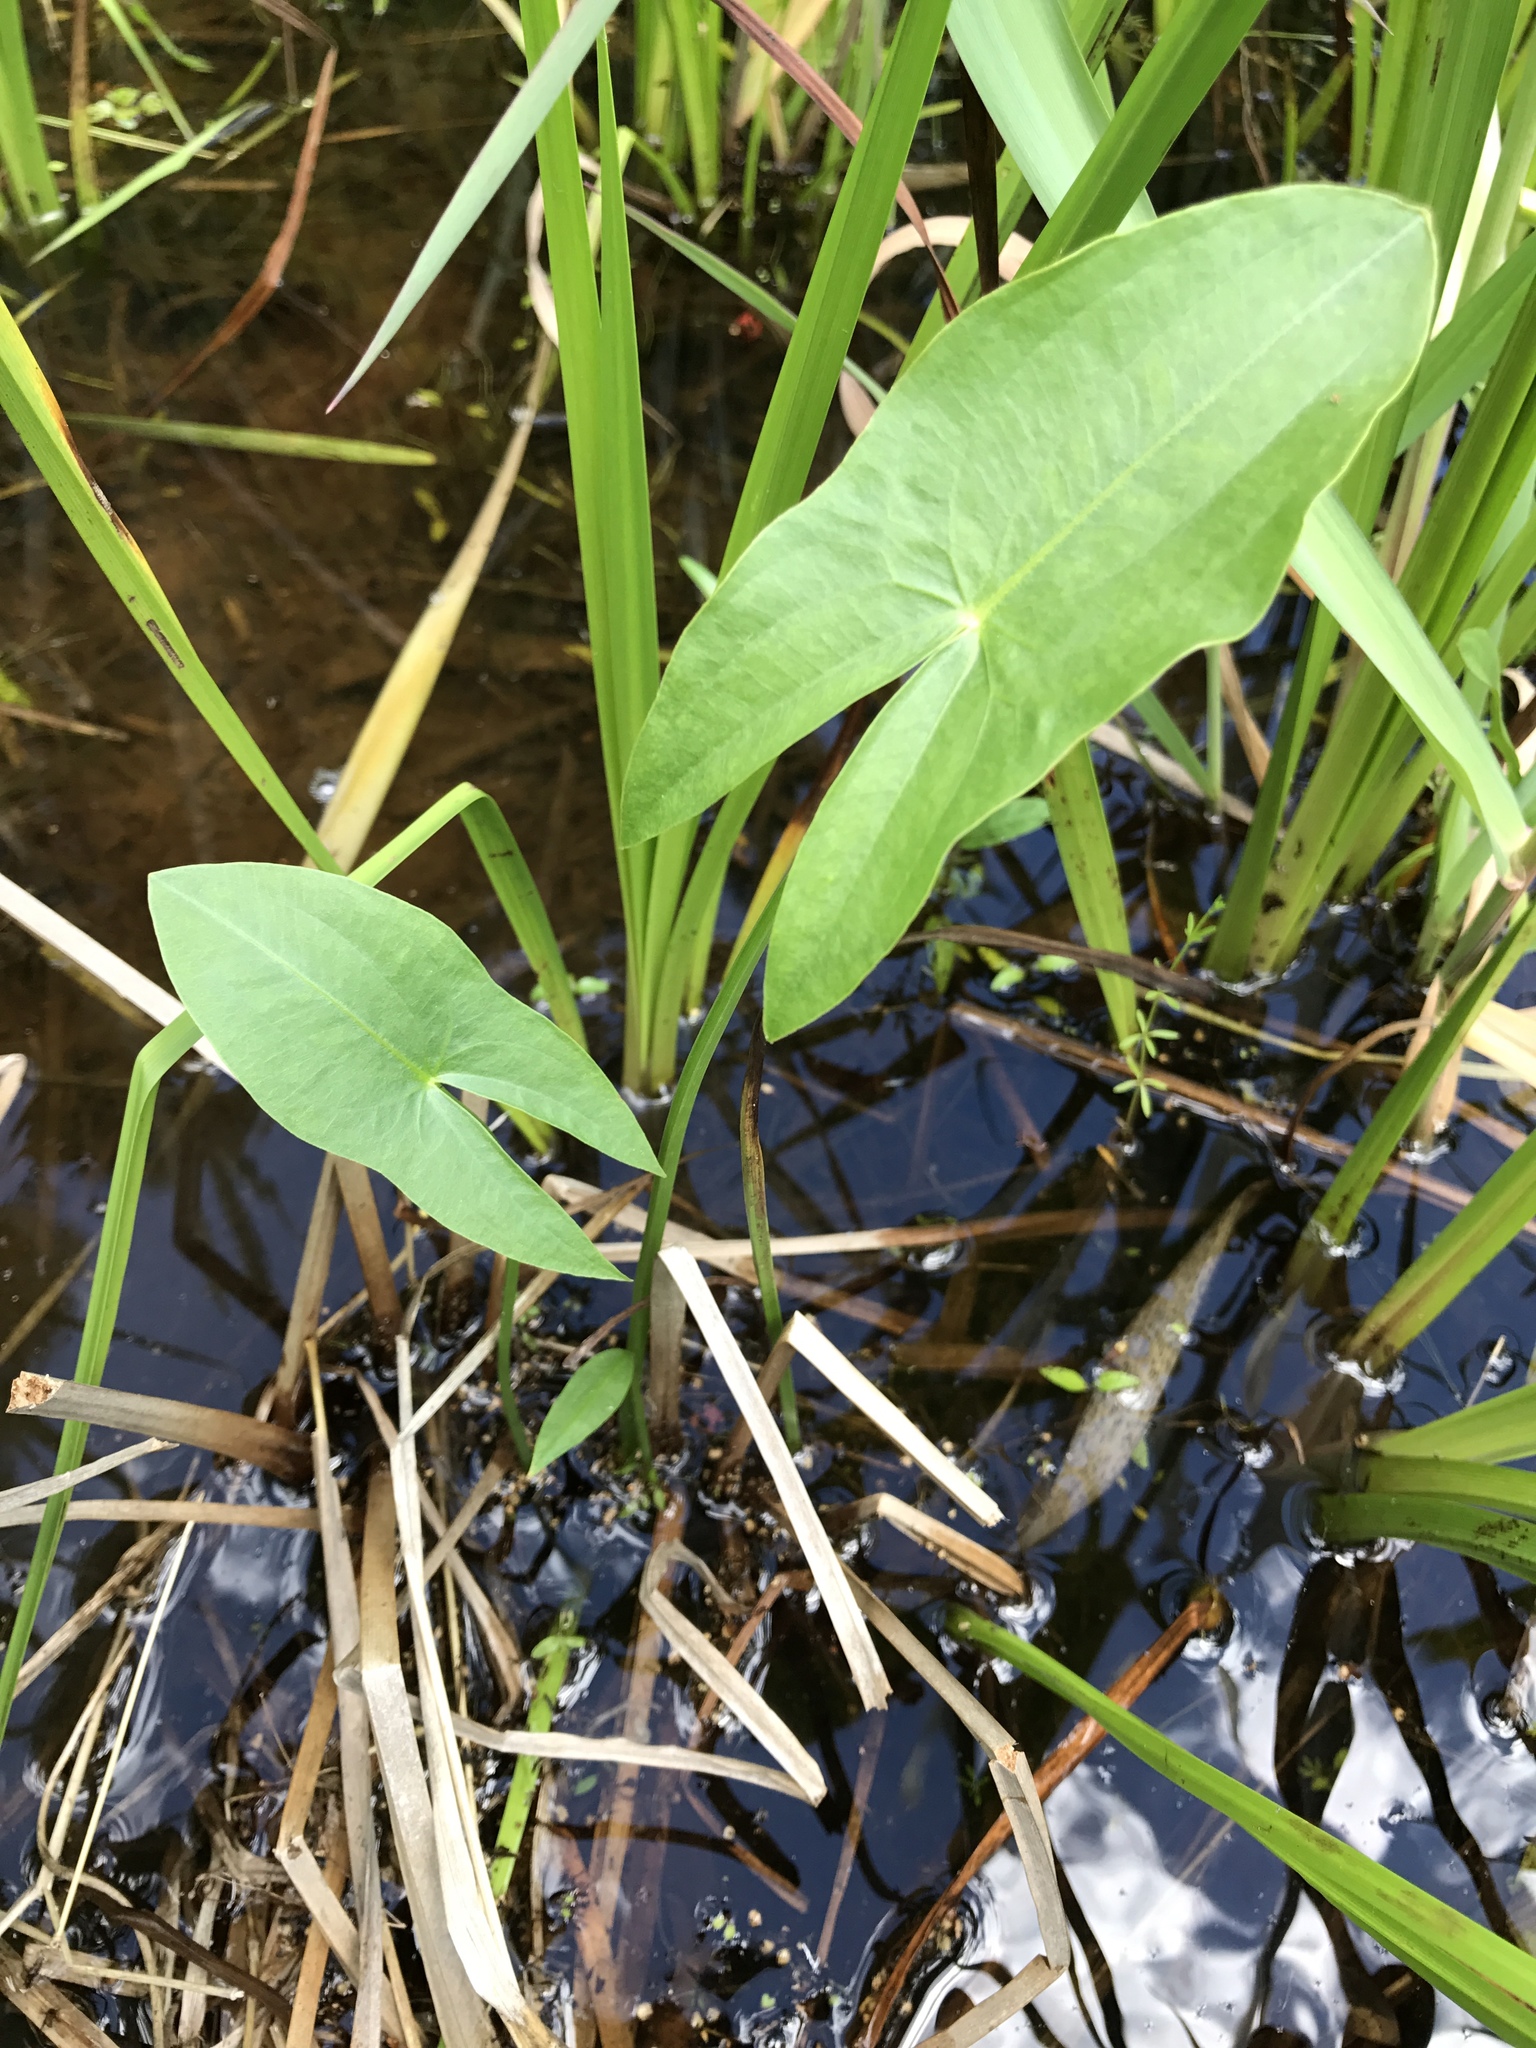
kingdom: Plantae
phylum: Tracheophyta
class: Liliopsida
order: Alismatales
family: Alismataceae
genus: Sagittaria
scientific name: Sagittaria latifolia
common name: Duck-potato
